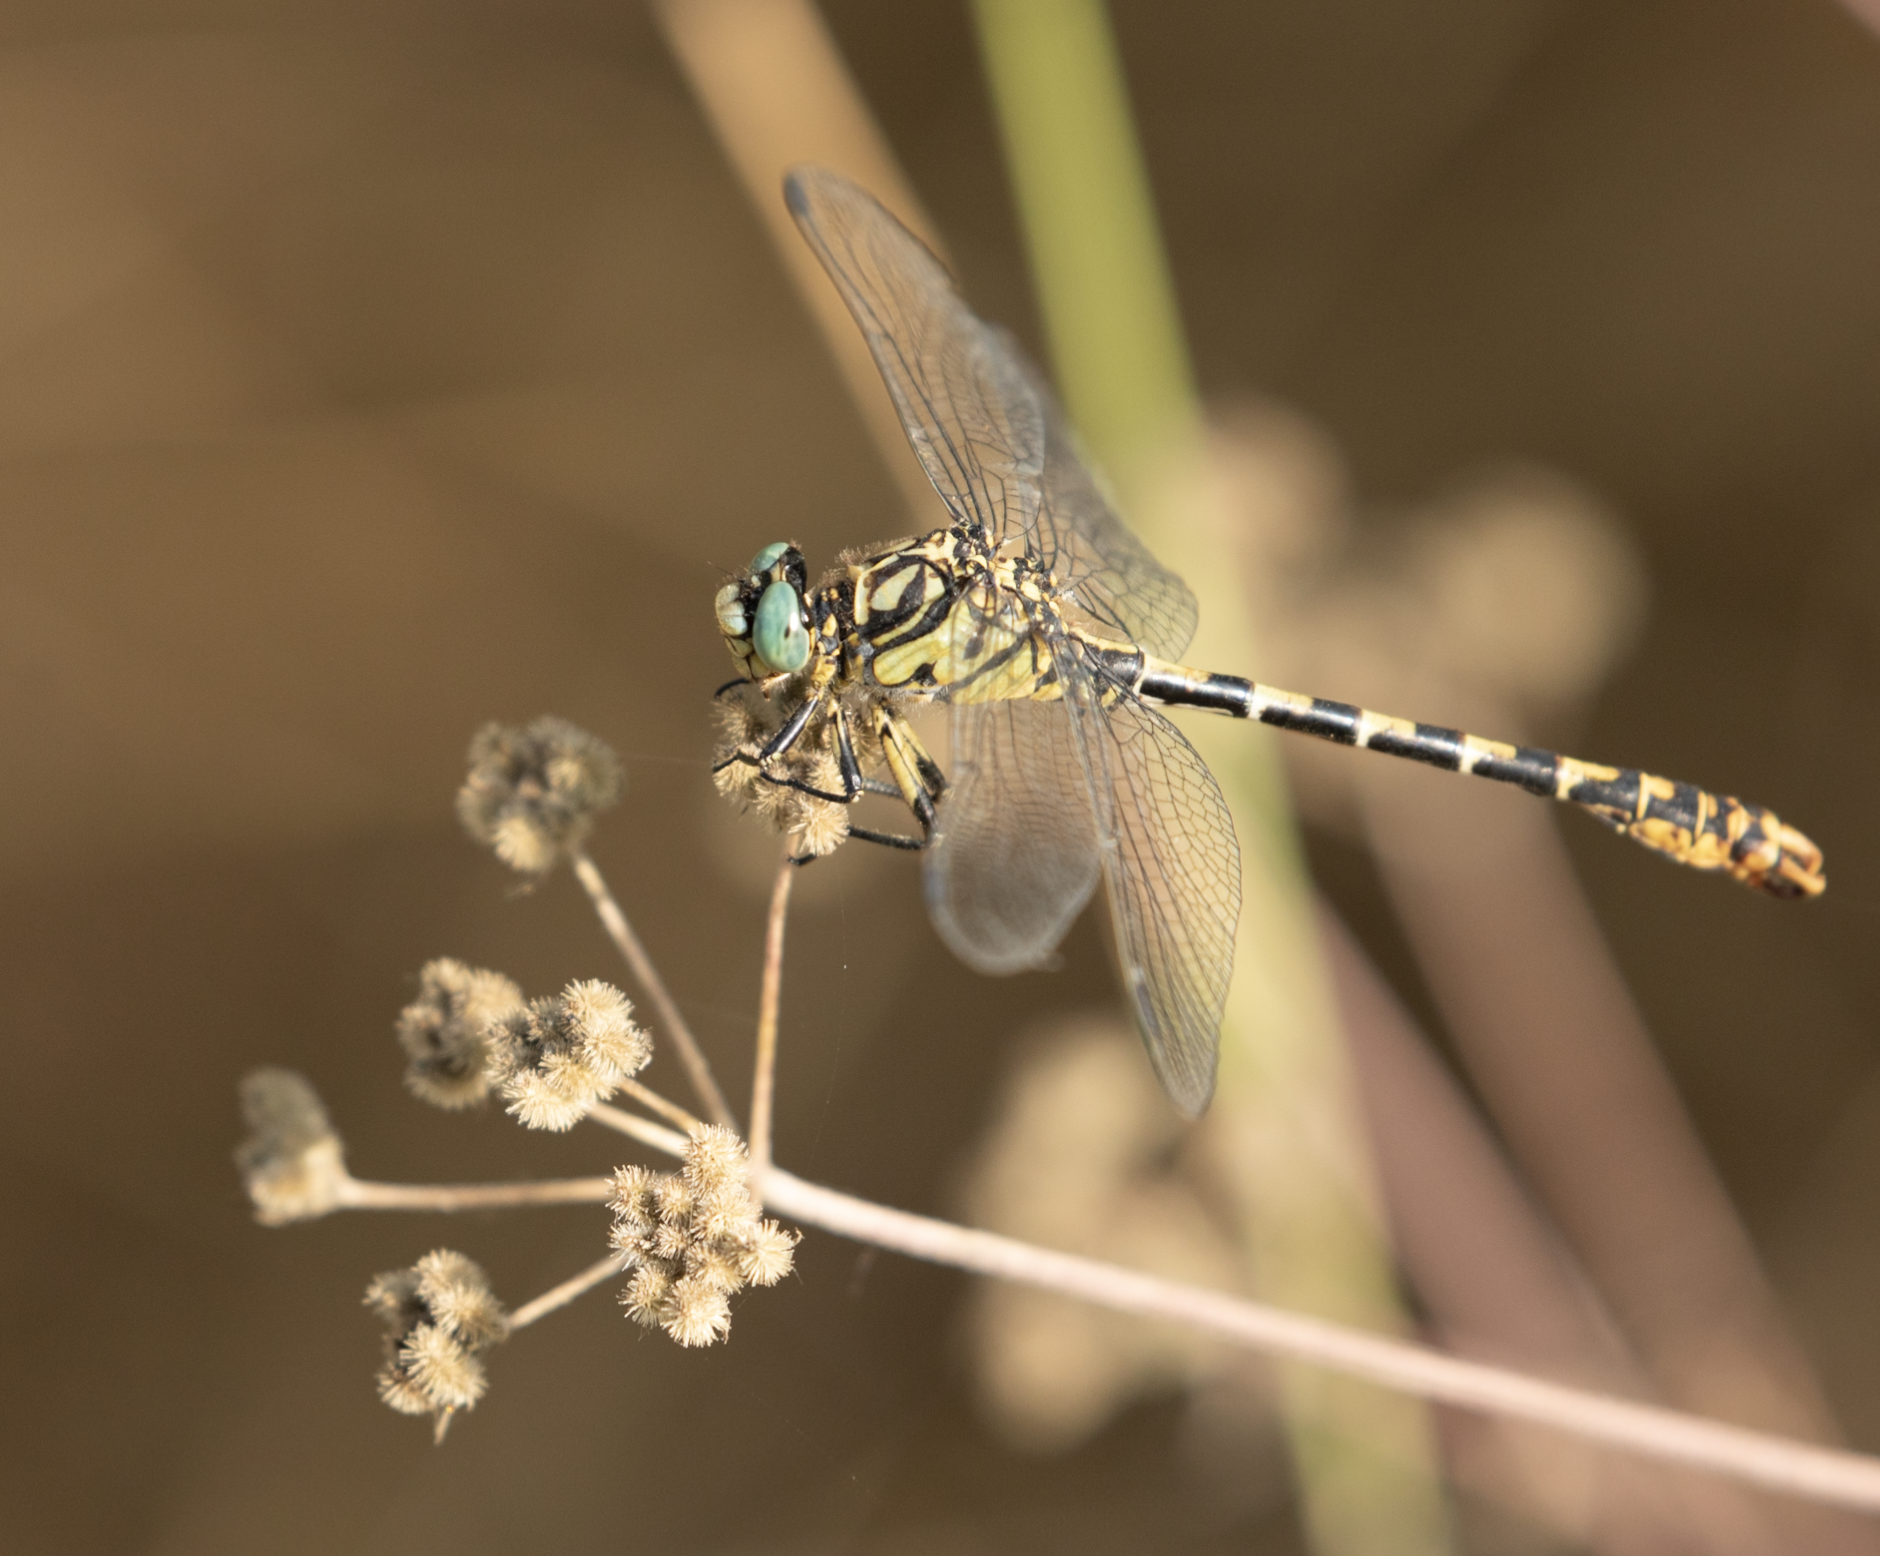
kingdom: Animalia
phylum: Arthropoda
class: Insecta
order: Odonata
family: Gomphidae
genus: Onychogomphus
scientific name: Onychogomphus forcipatus
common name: Small pincertail
